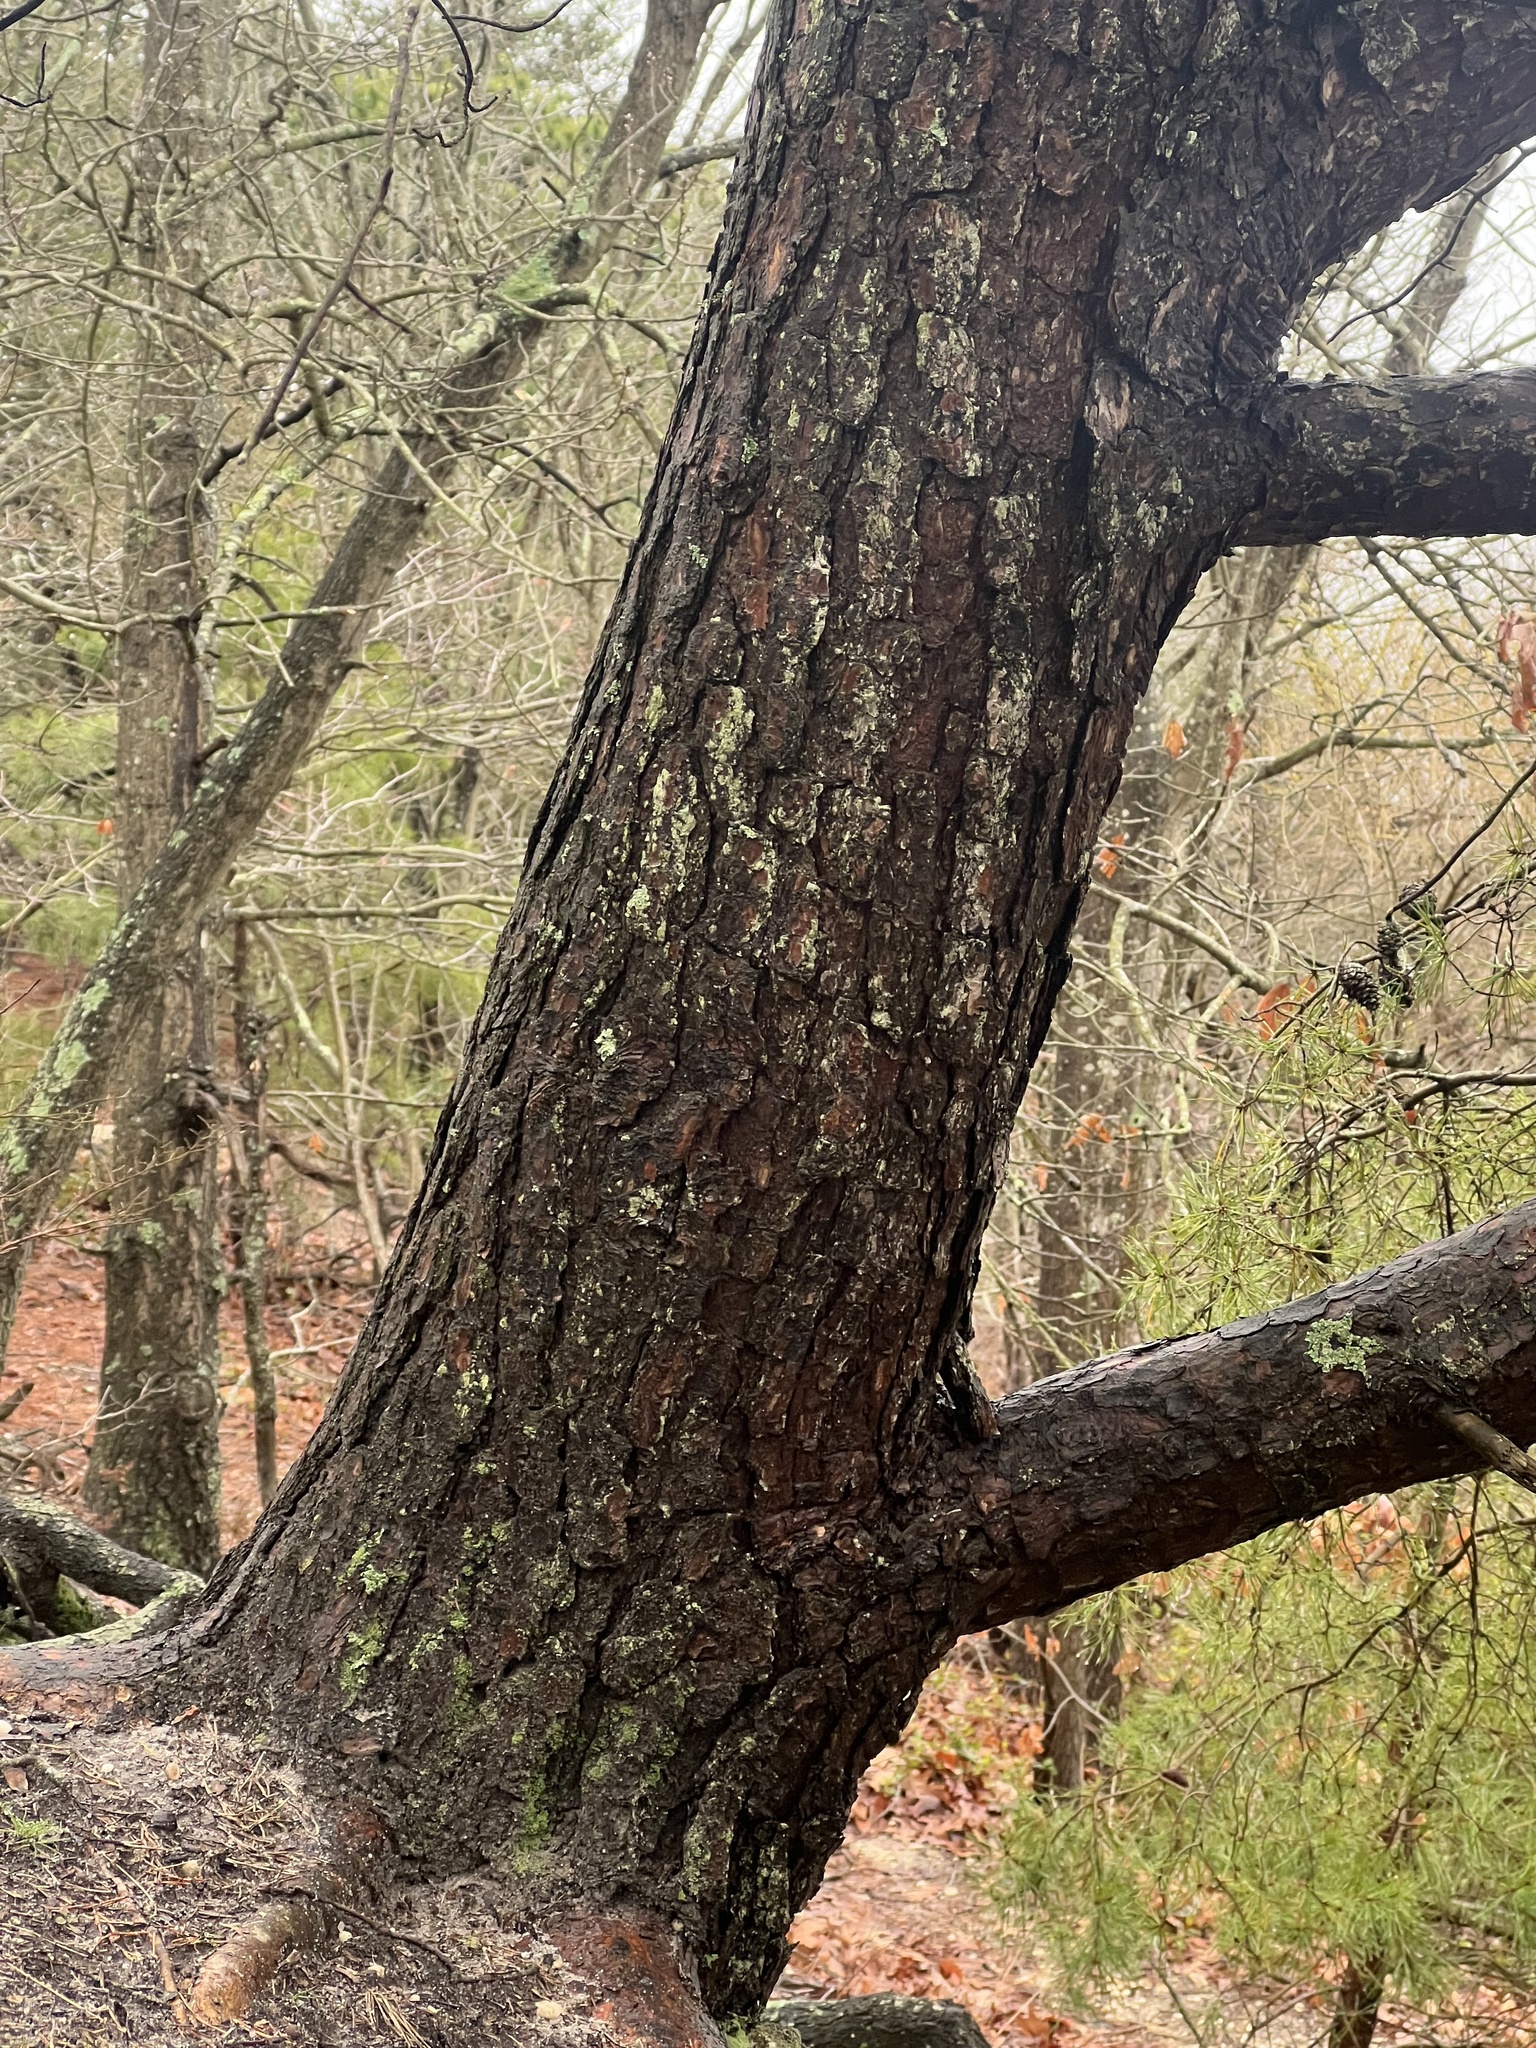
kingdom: Plantae
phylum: Tracheophyta
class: Pinopsida
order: Pinales
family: Pinaceae
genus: Pinus
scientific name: Pinus virginiana
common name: Scrub pine
